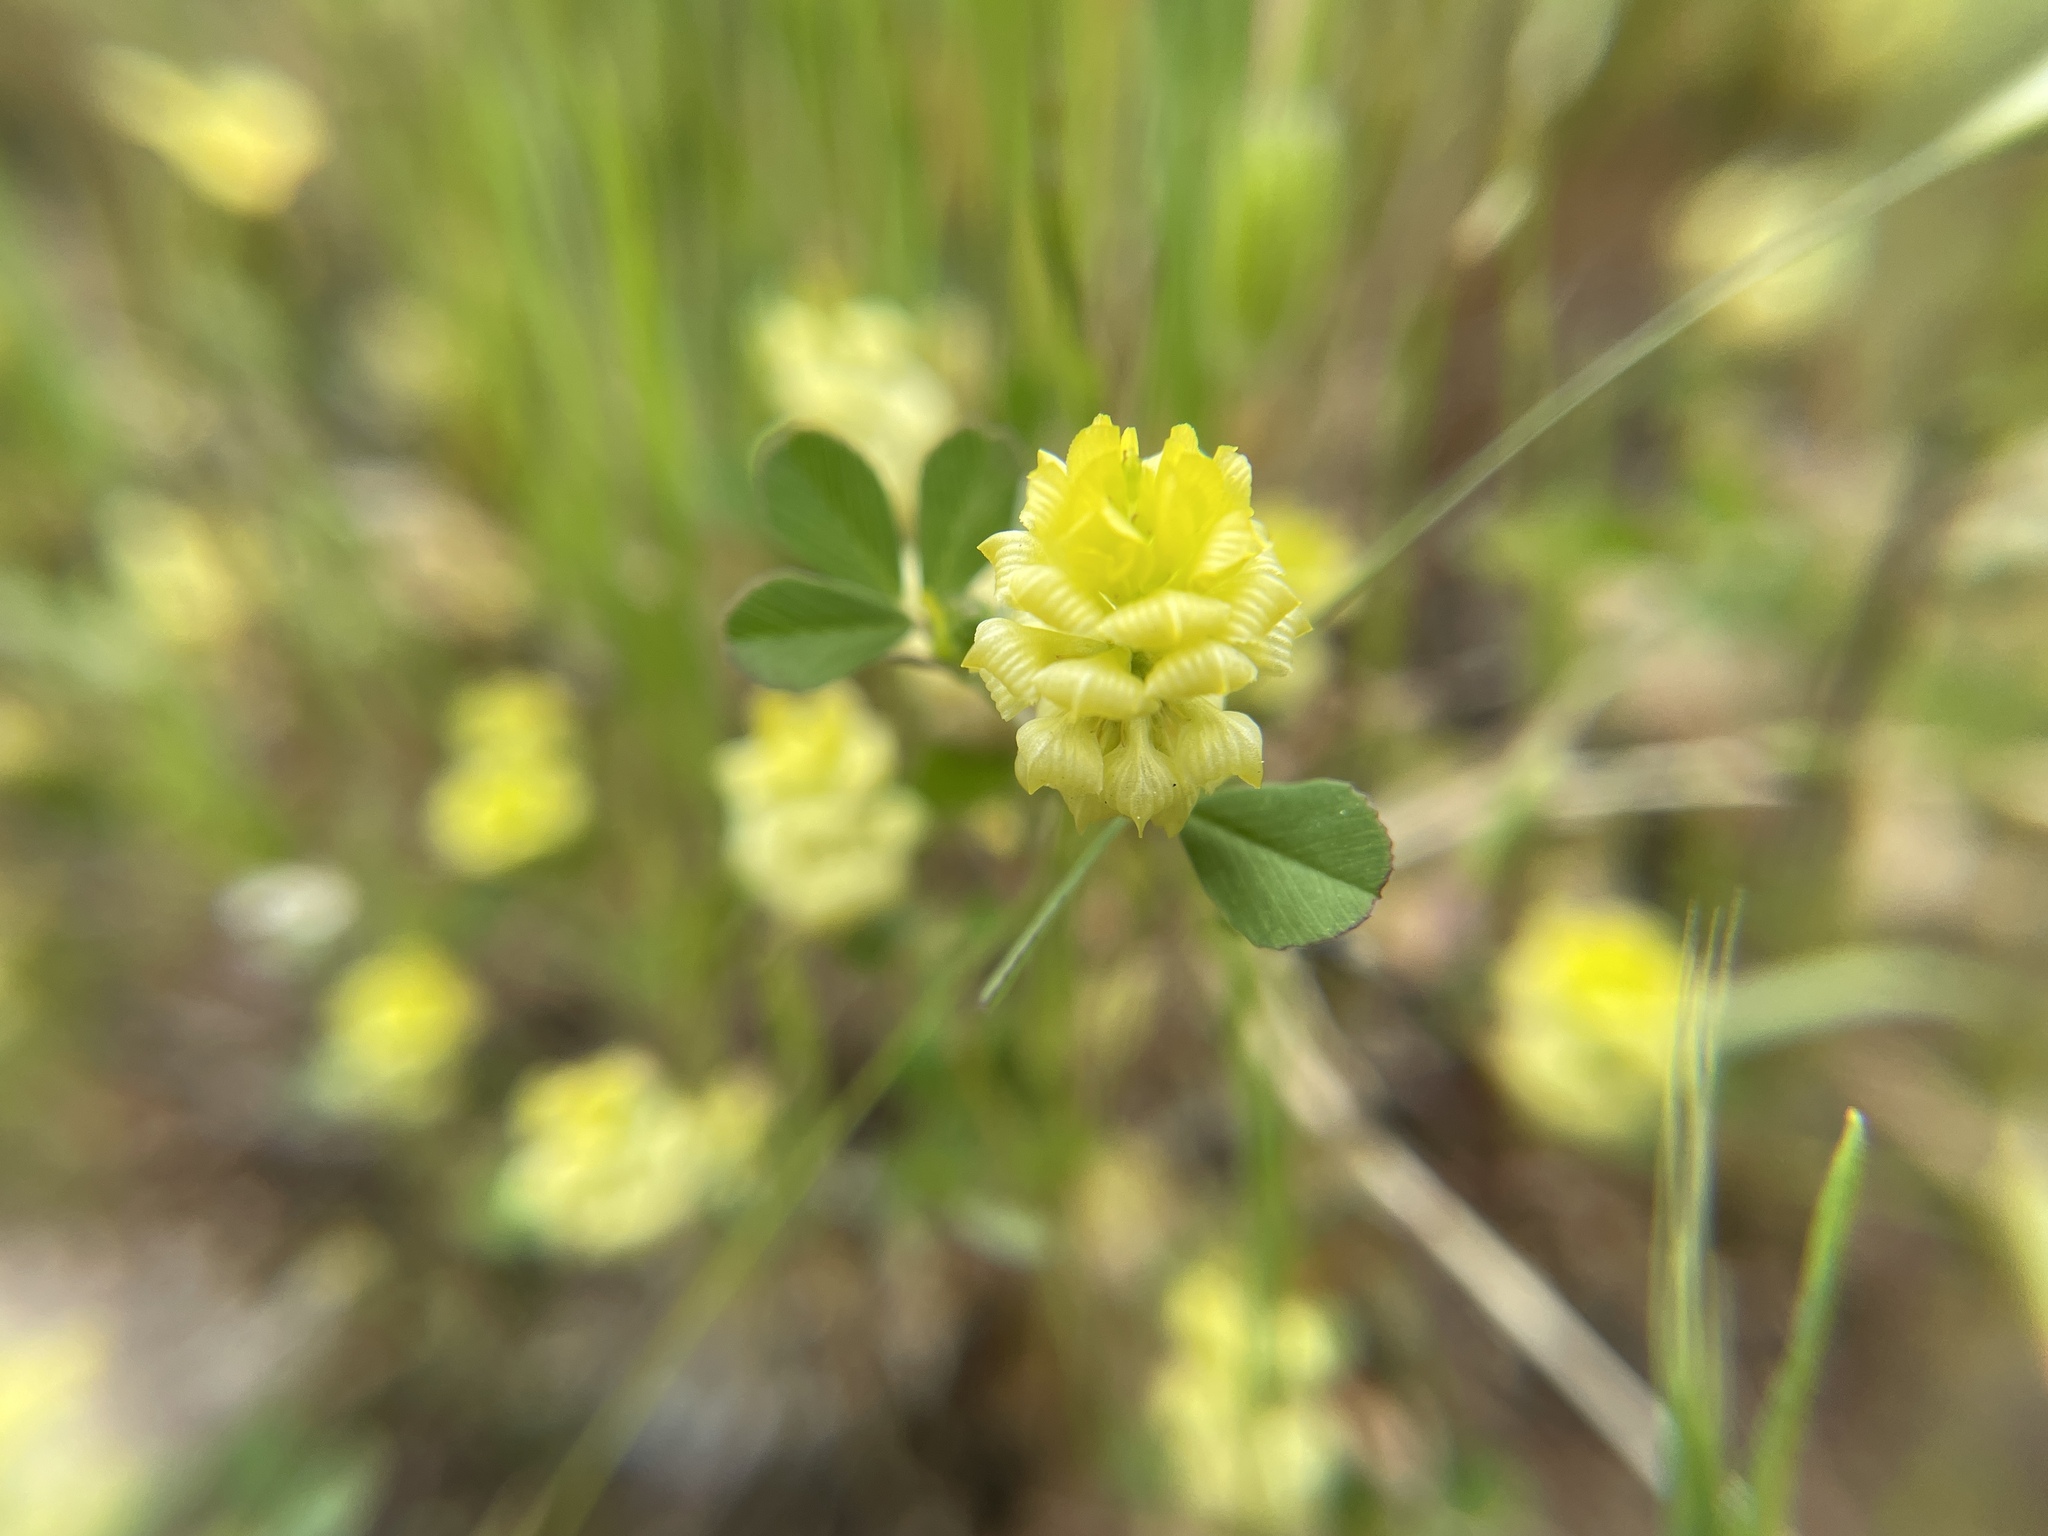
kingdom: Plantae
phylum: Tracheophyta
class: Magnoliopsida
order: Fabales
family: Fabaceae
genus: Trifolium
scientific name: Trifolium campestre
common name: Field clover
